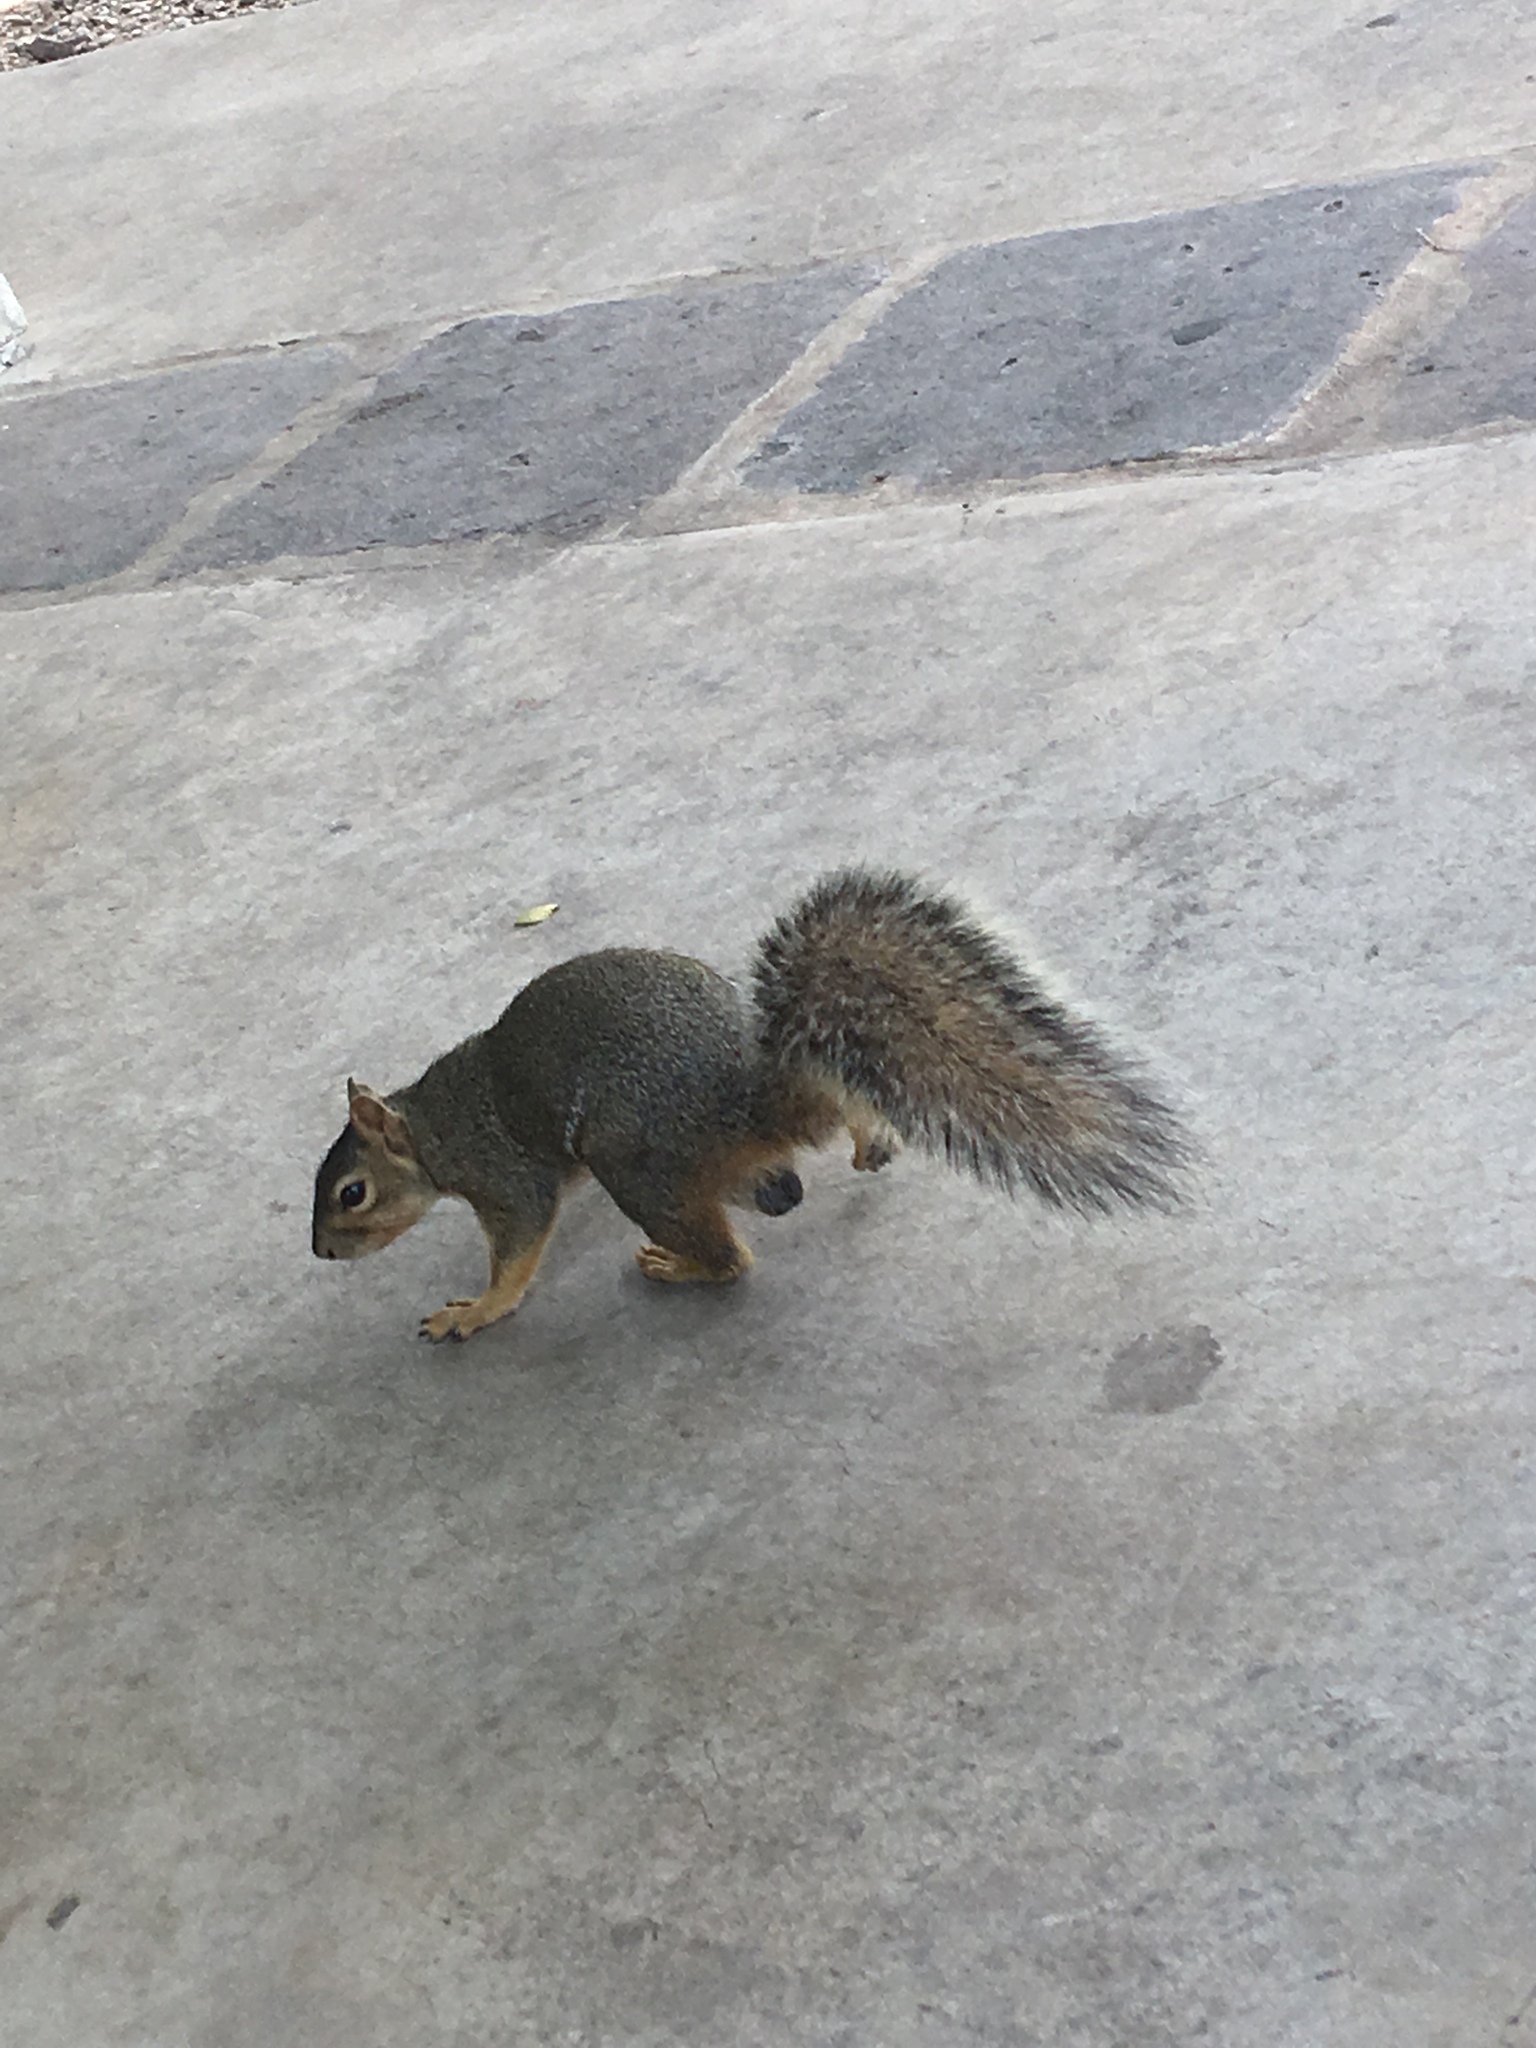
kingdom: Animalia
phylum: Chordata
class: Mammalia
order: Rodentia
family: Sciuridae
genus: Sciurus
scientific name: Sciurus niger
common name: Fox squirrel
